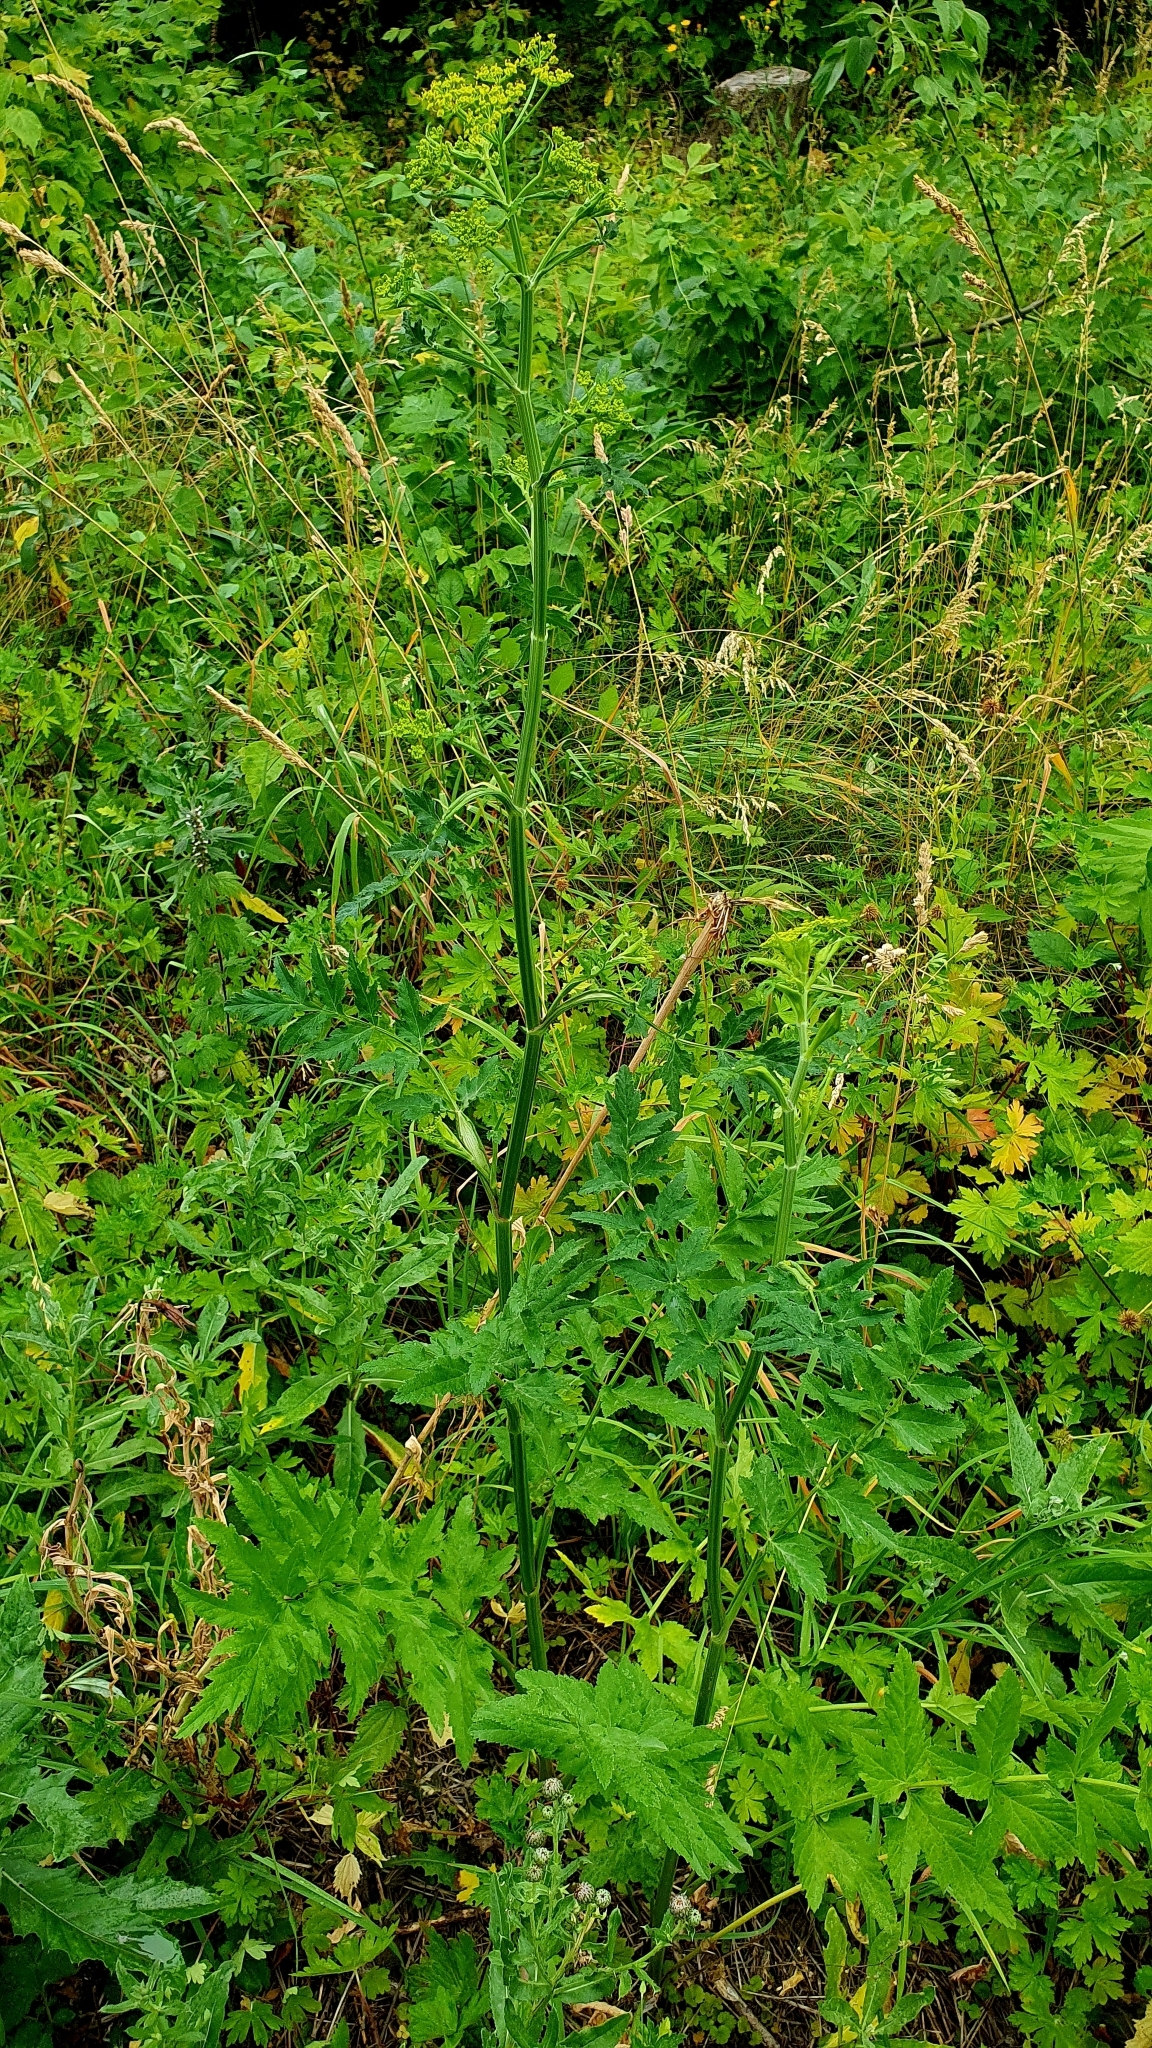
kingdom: Plantae
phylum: Tracheophyta
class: Magnoliopsida
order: Apiales
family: Apiaceae
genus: Pastinaca
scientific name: Pastinaca sativa
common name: Wild parsnip
